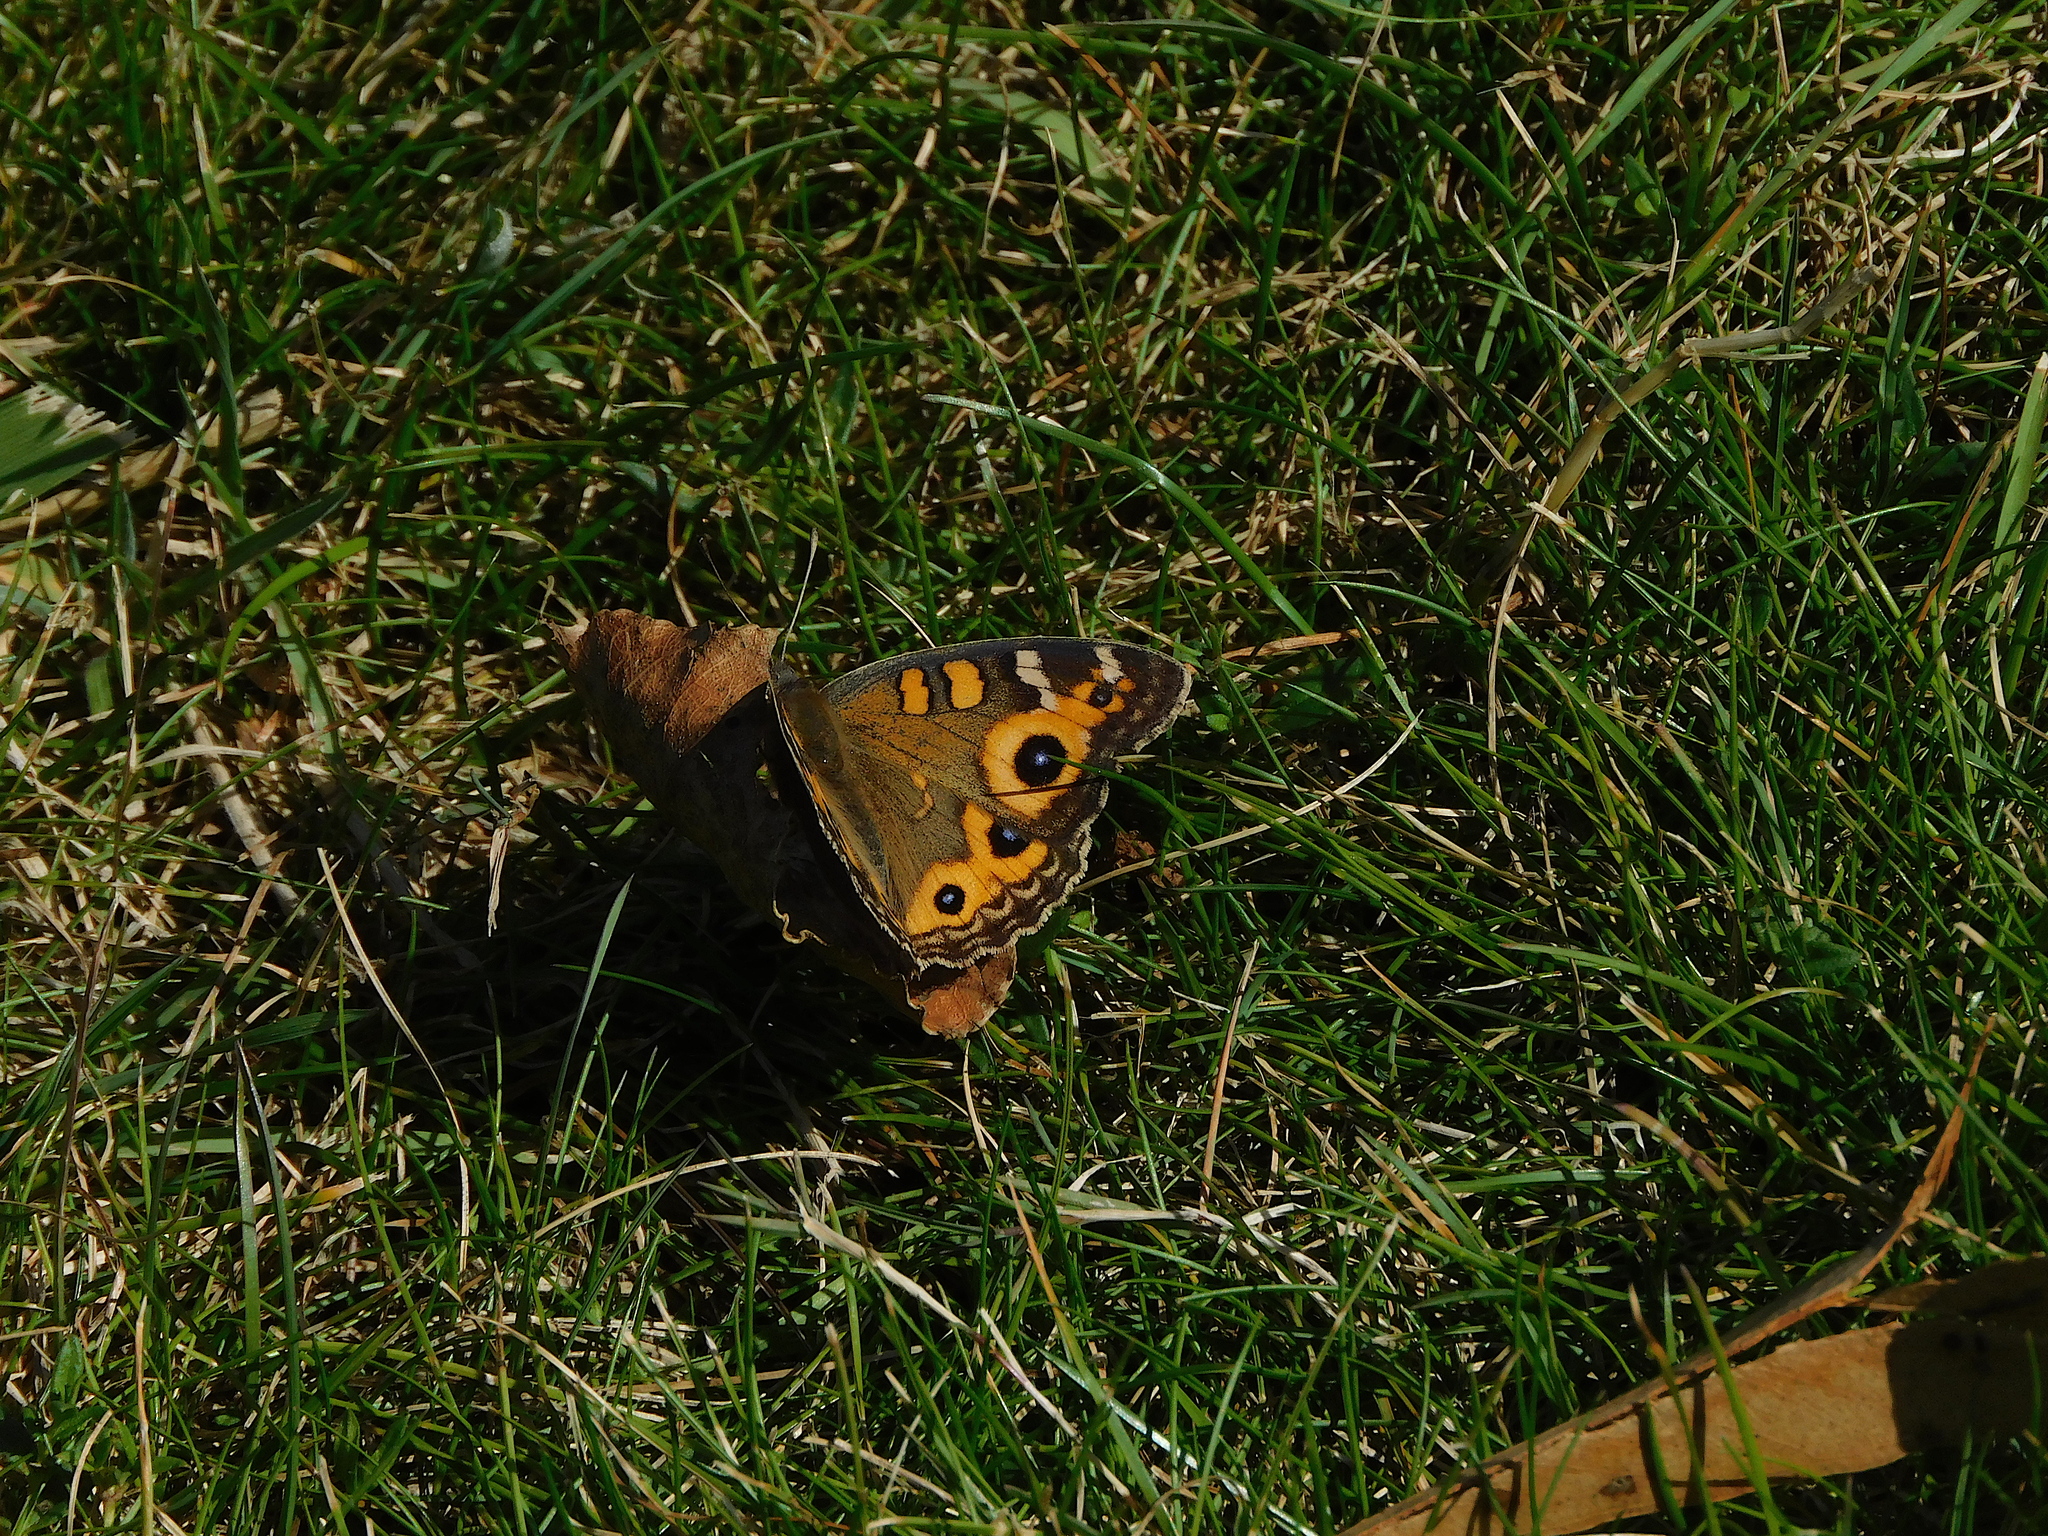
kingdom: Animalia
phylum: Arthropoda
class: Insecta
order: Lepidoptera
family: Nymphalidae
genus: Junonia
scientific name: Junonia villida
